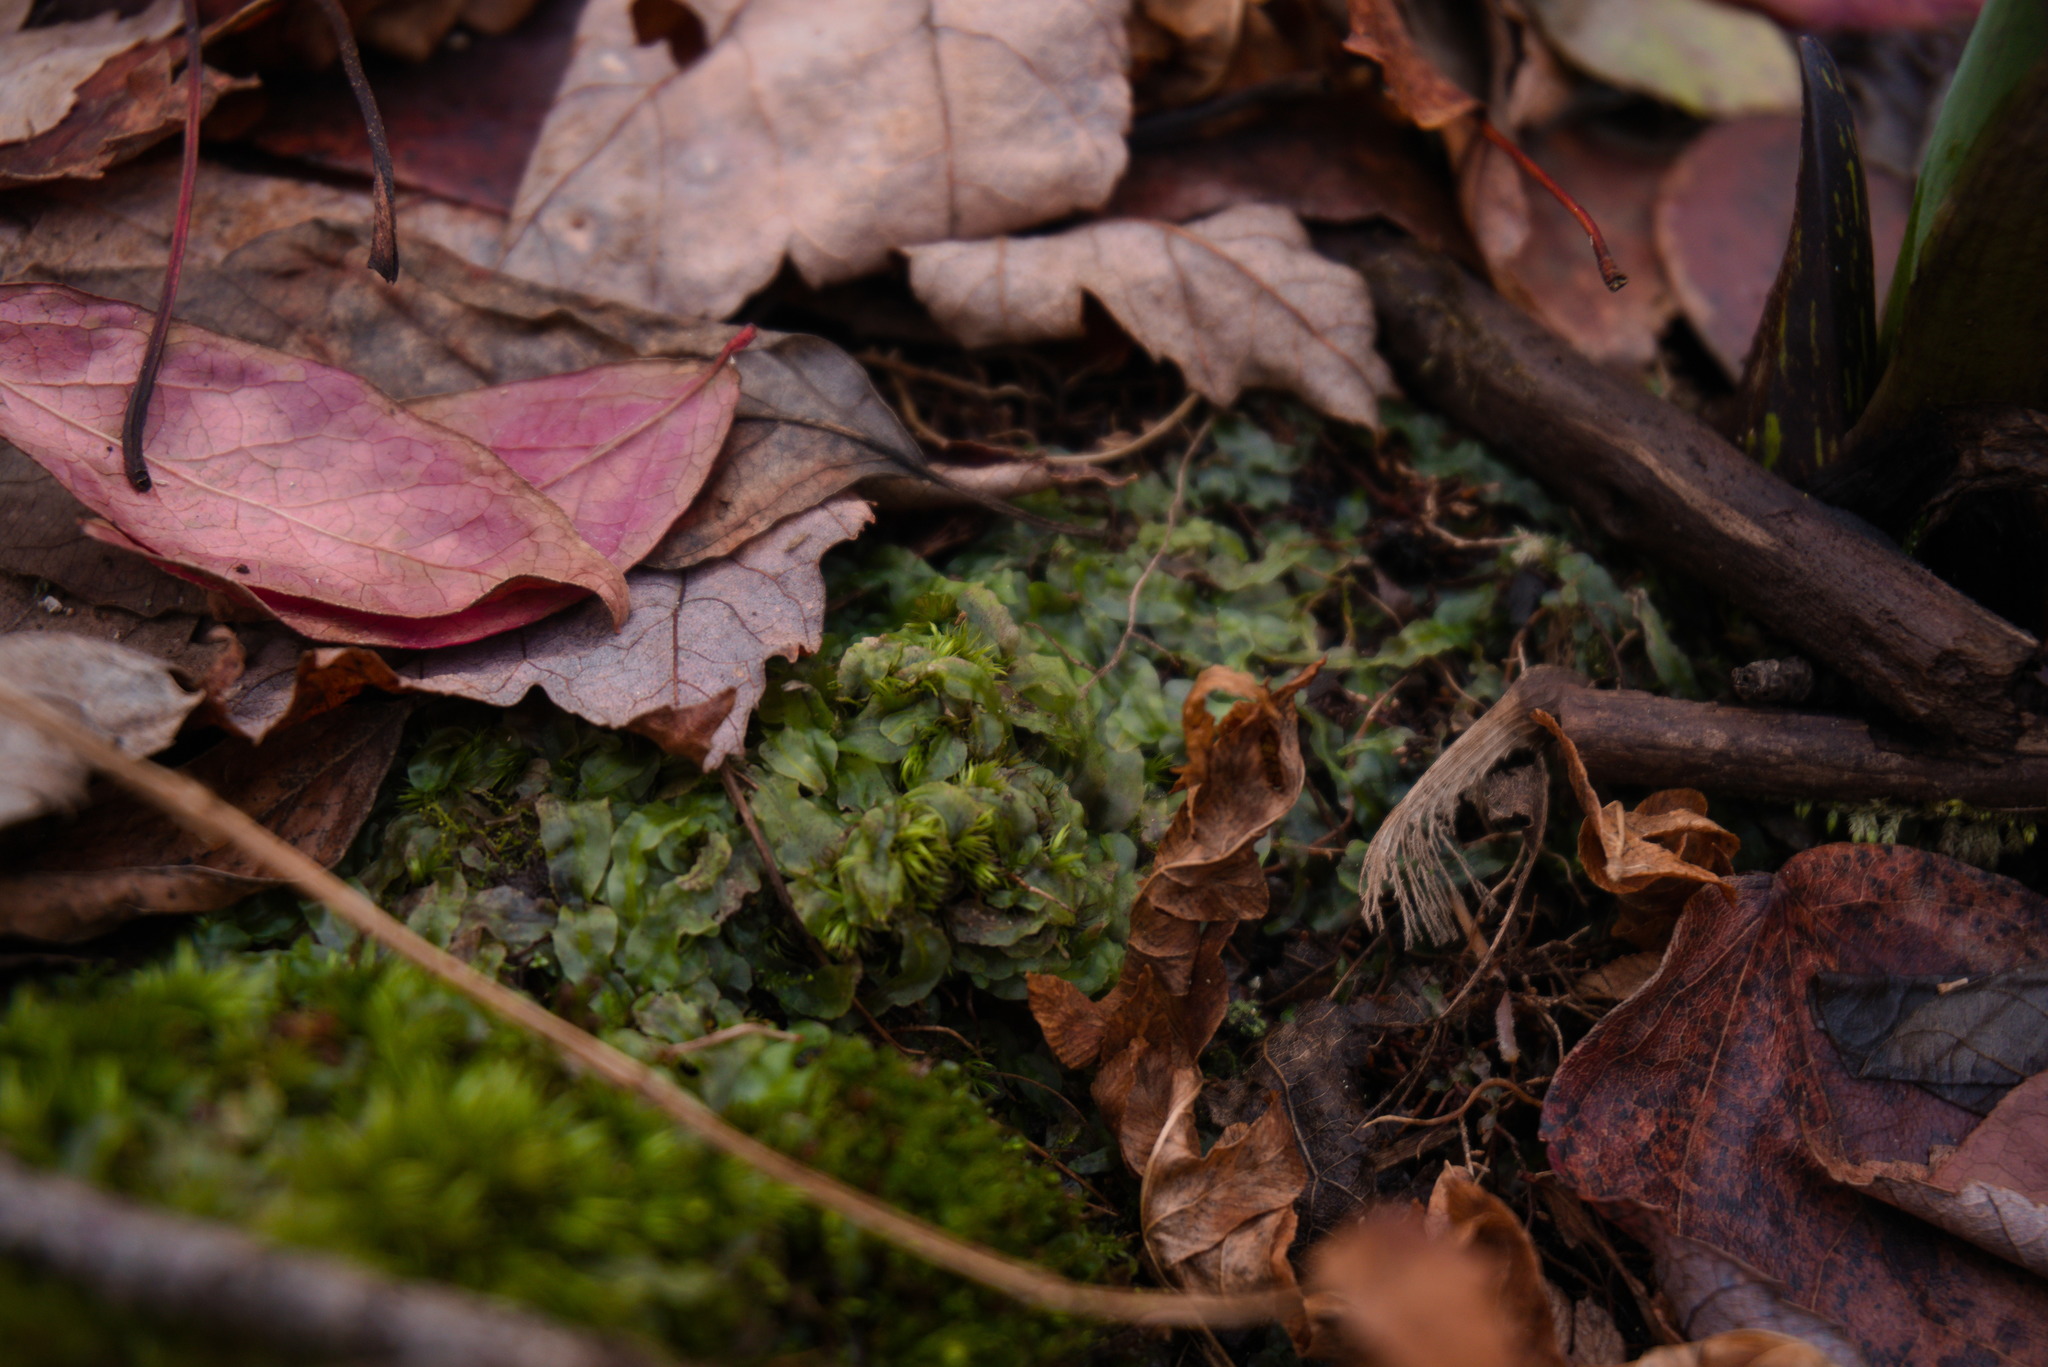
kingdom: Plantae
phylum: Marchantiophyta
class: Jungermanniopsida
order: Pallaviciniales
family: Pallaviciniaceae
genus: Pallavicinia
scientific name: Pallavicinia lyellii
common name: Veilwort
